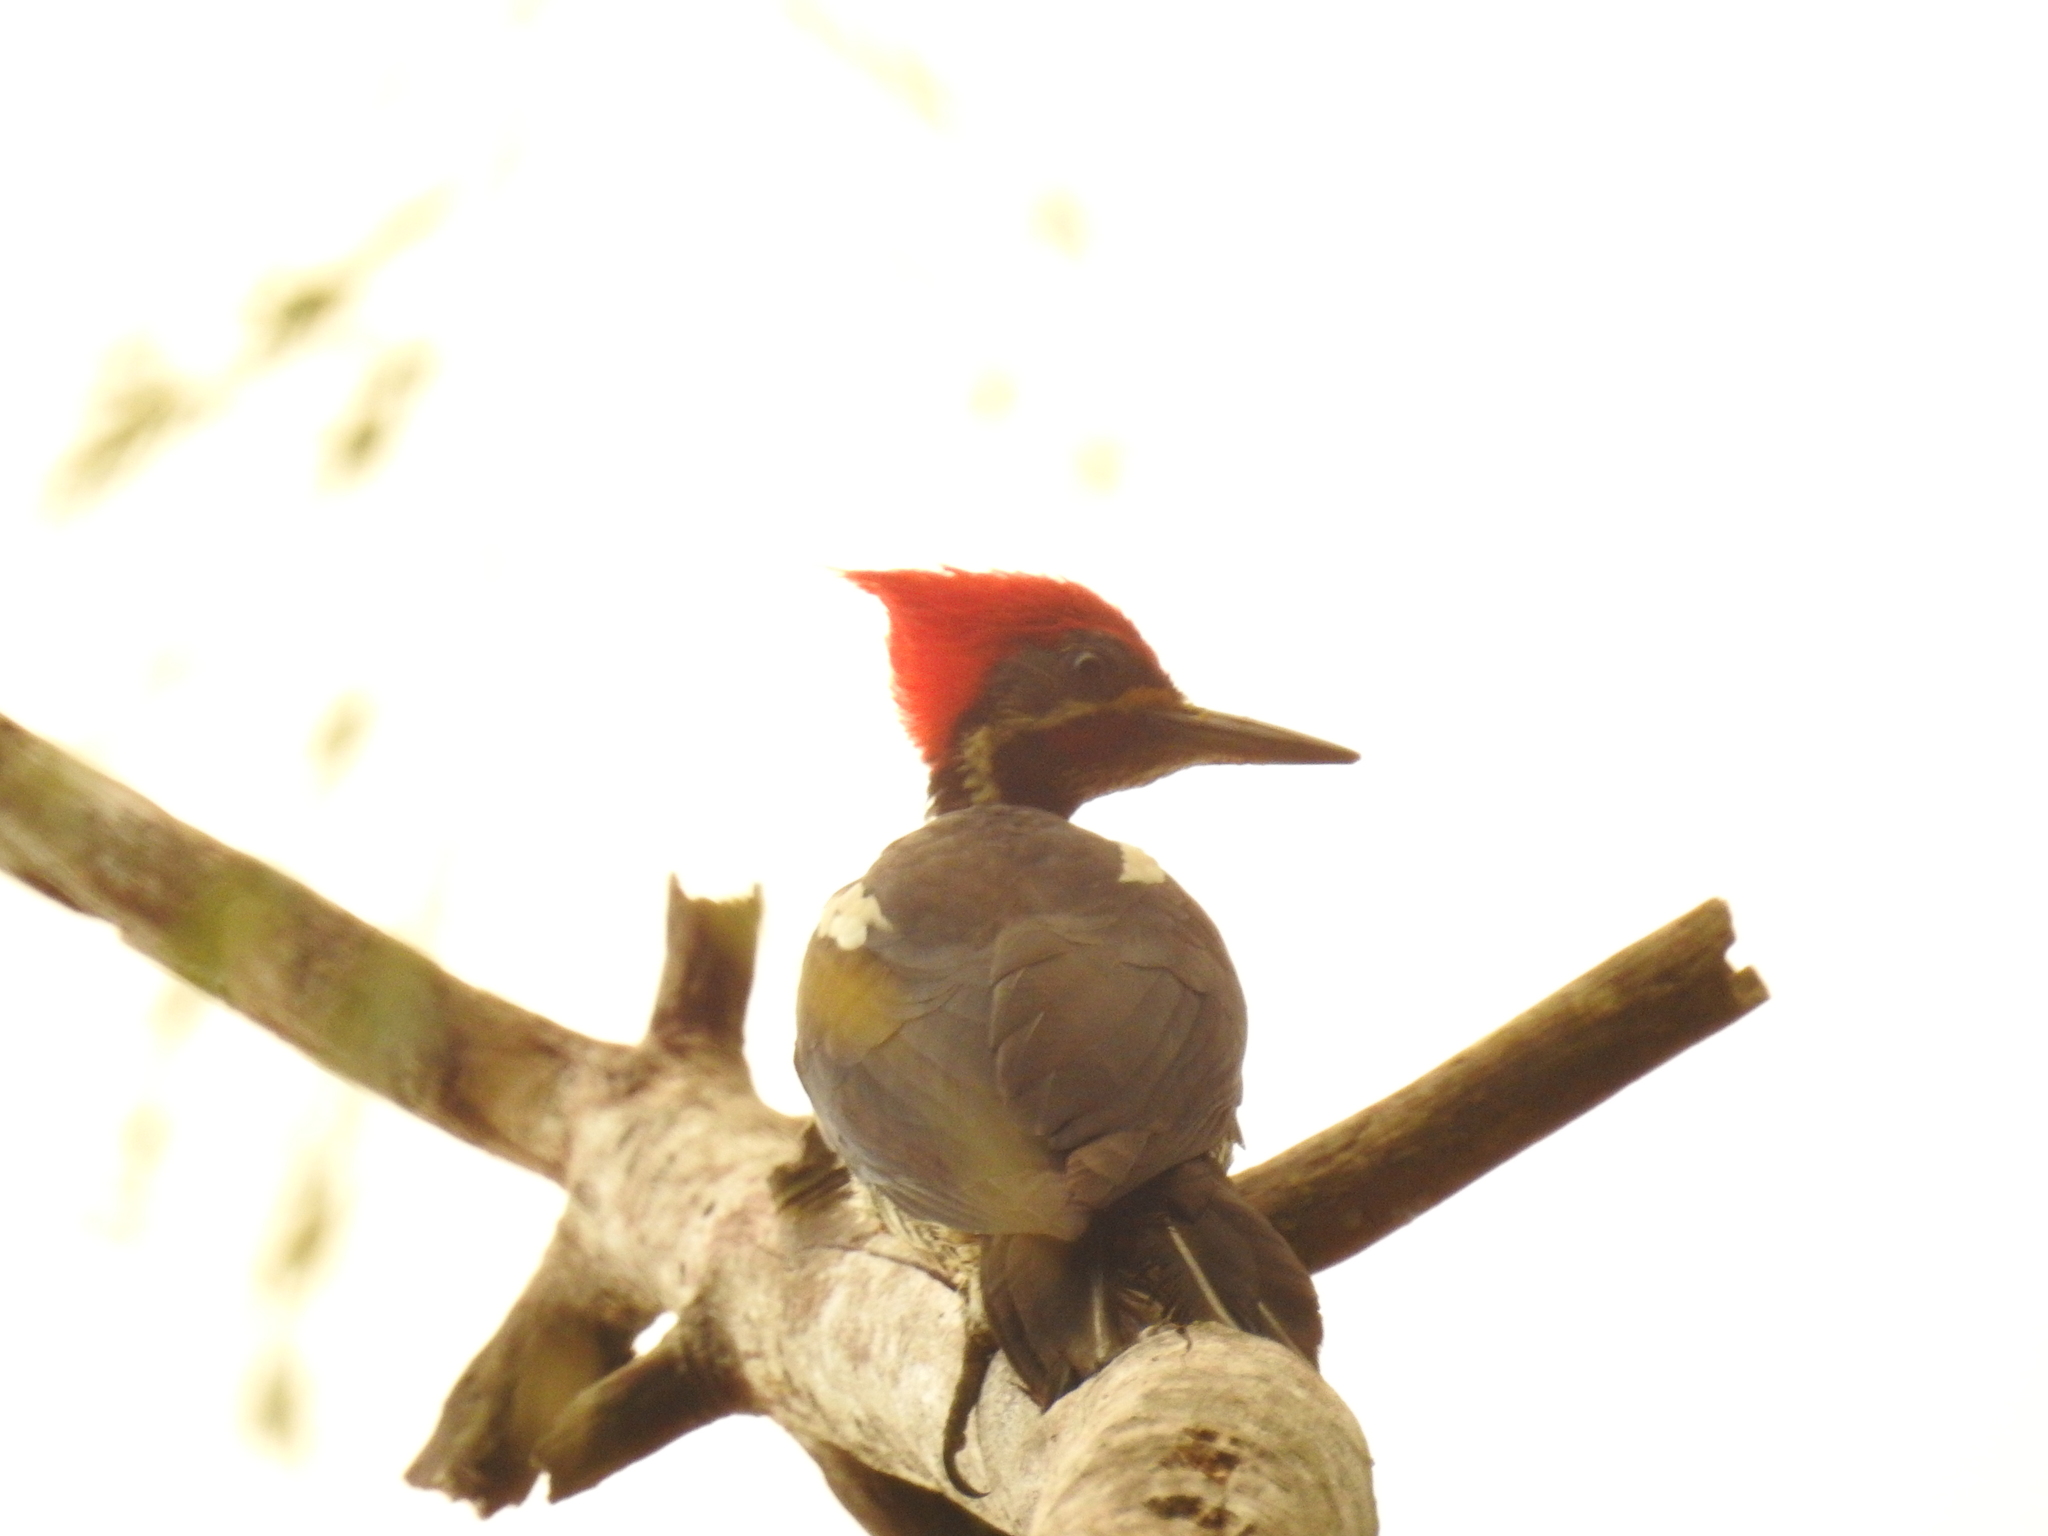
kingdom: Animalia
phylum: Chordata
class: Aves
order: Piciformes
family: Picidae
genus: Dryocopus
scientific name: Dryocopus lineatus
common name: Lineated woodpecker
